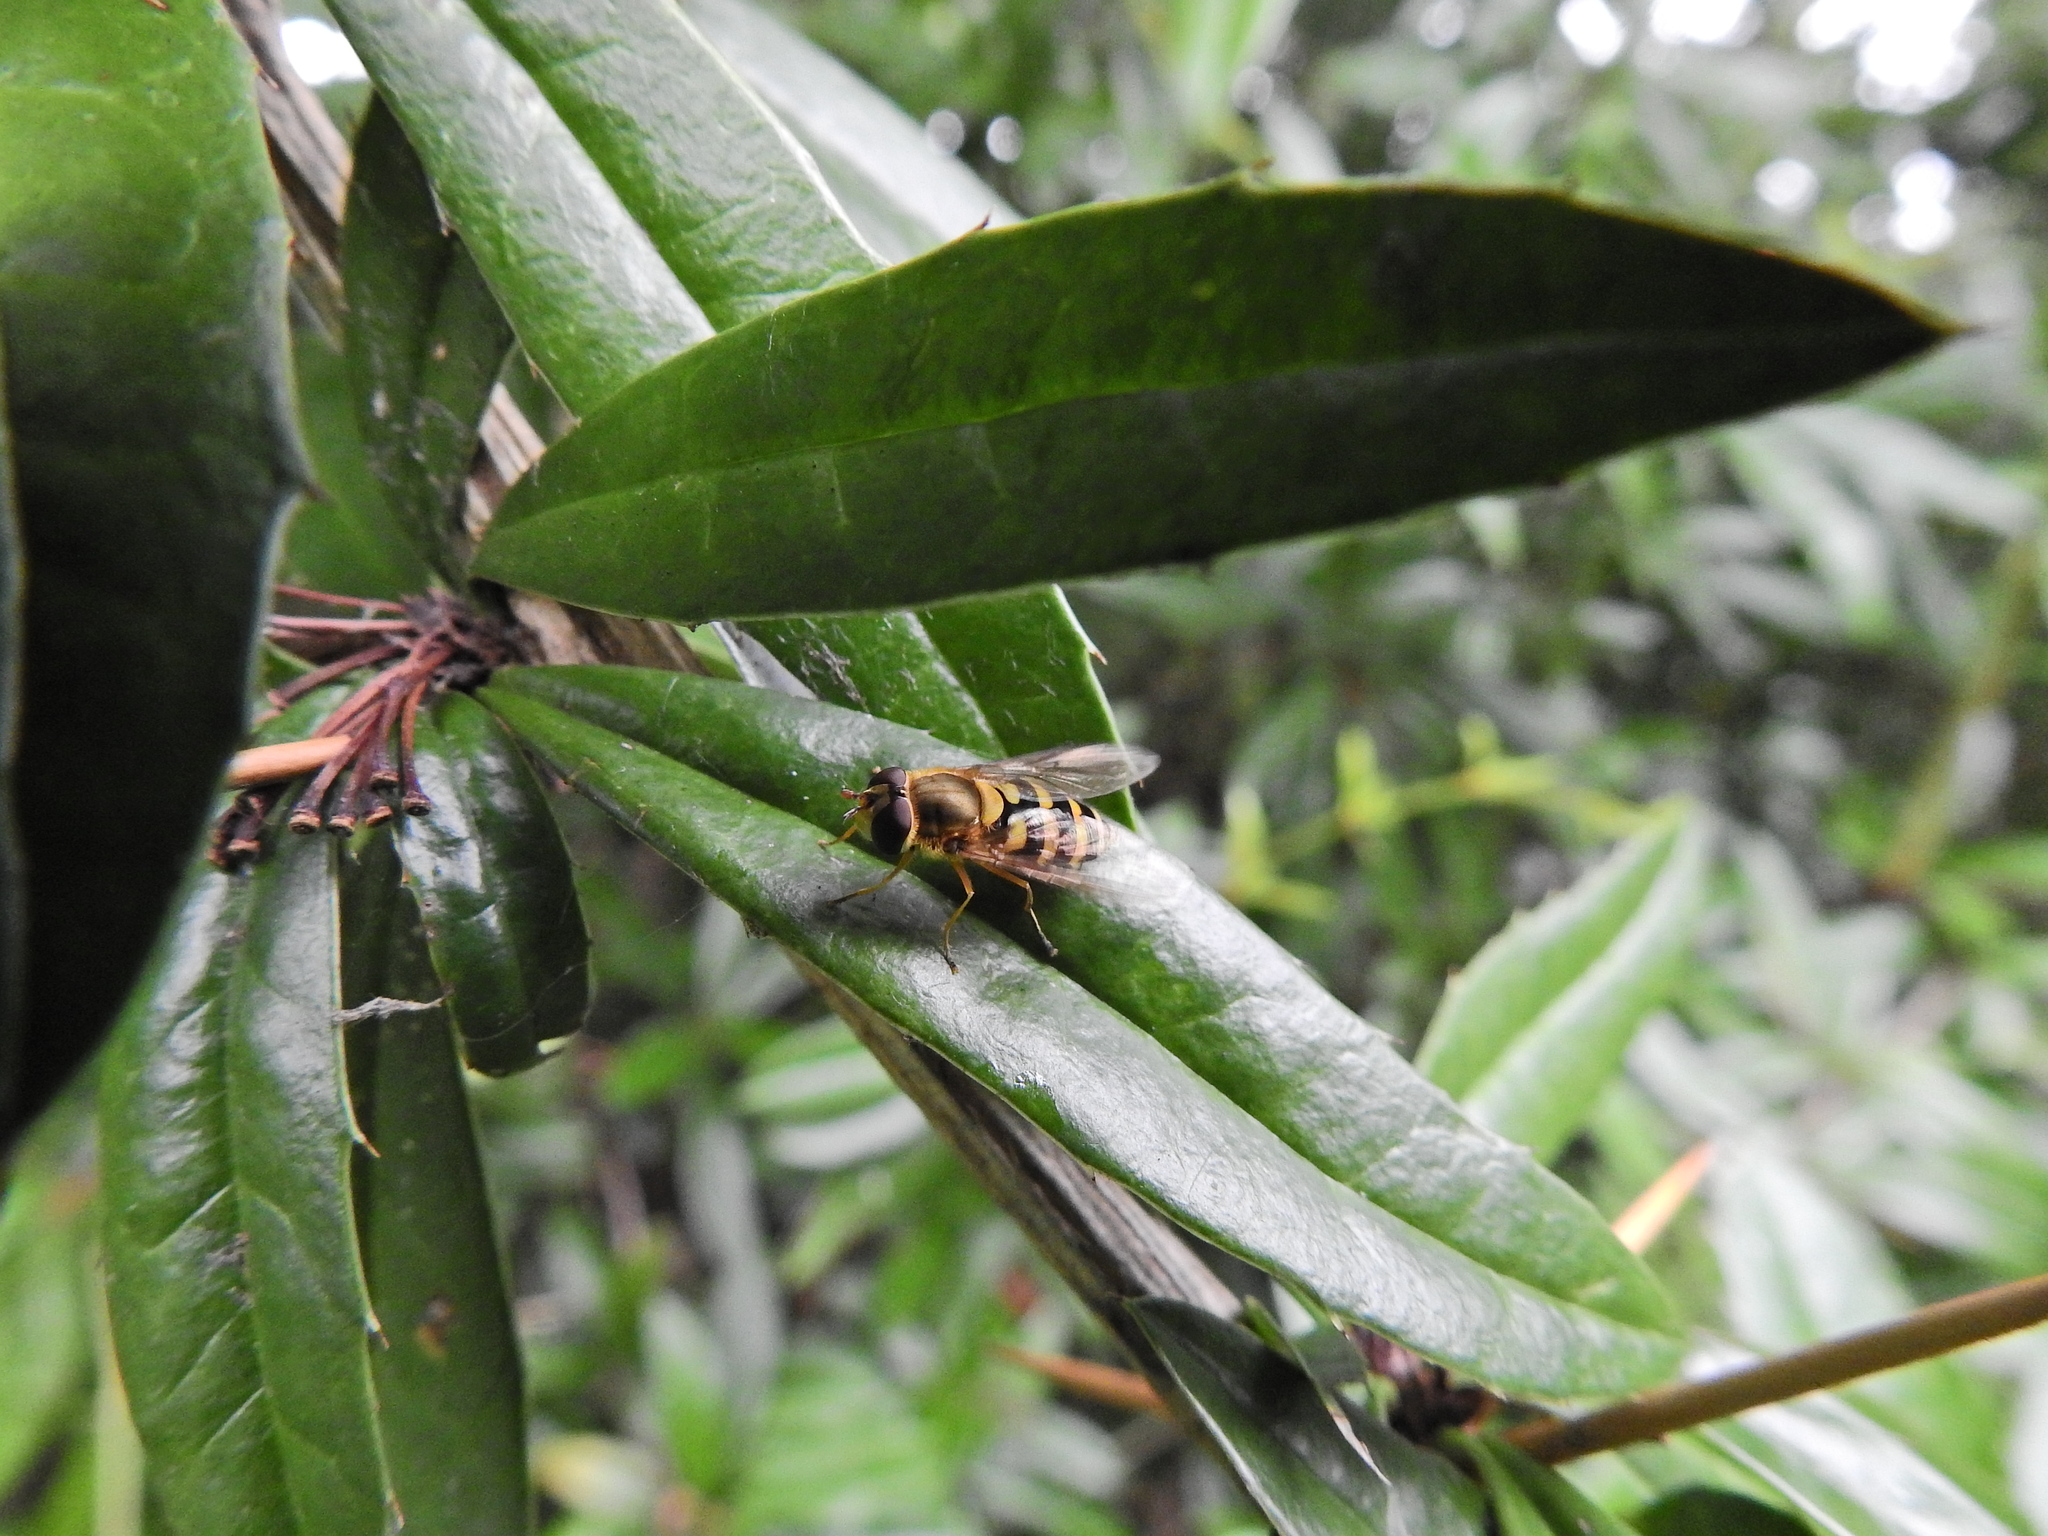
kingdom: Animalia
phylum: Arthropoda
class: Insecta
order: Diptera
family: Syrphidae
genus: Syrphus
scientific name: Syrphus ribesii
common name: Common flower fly
